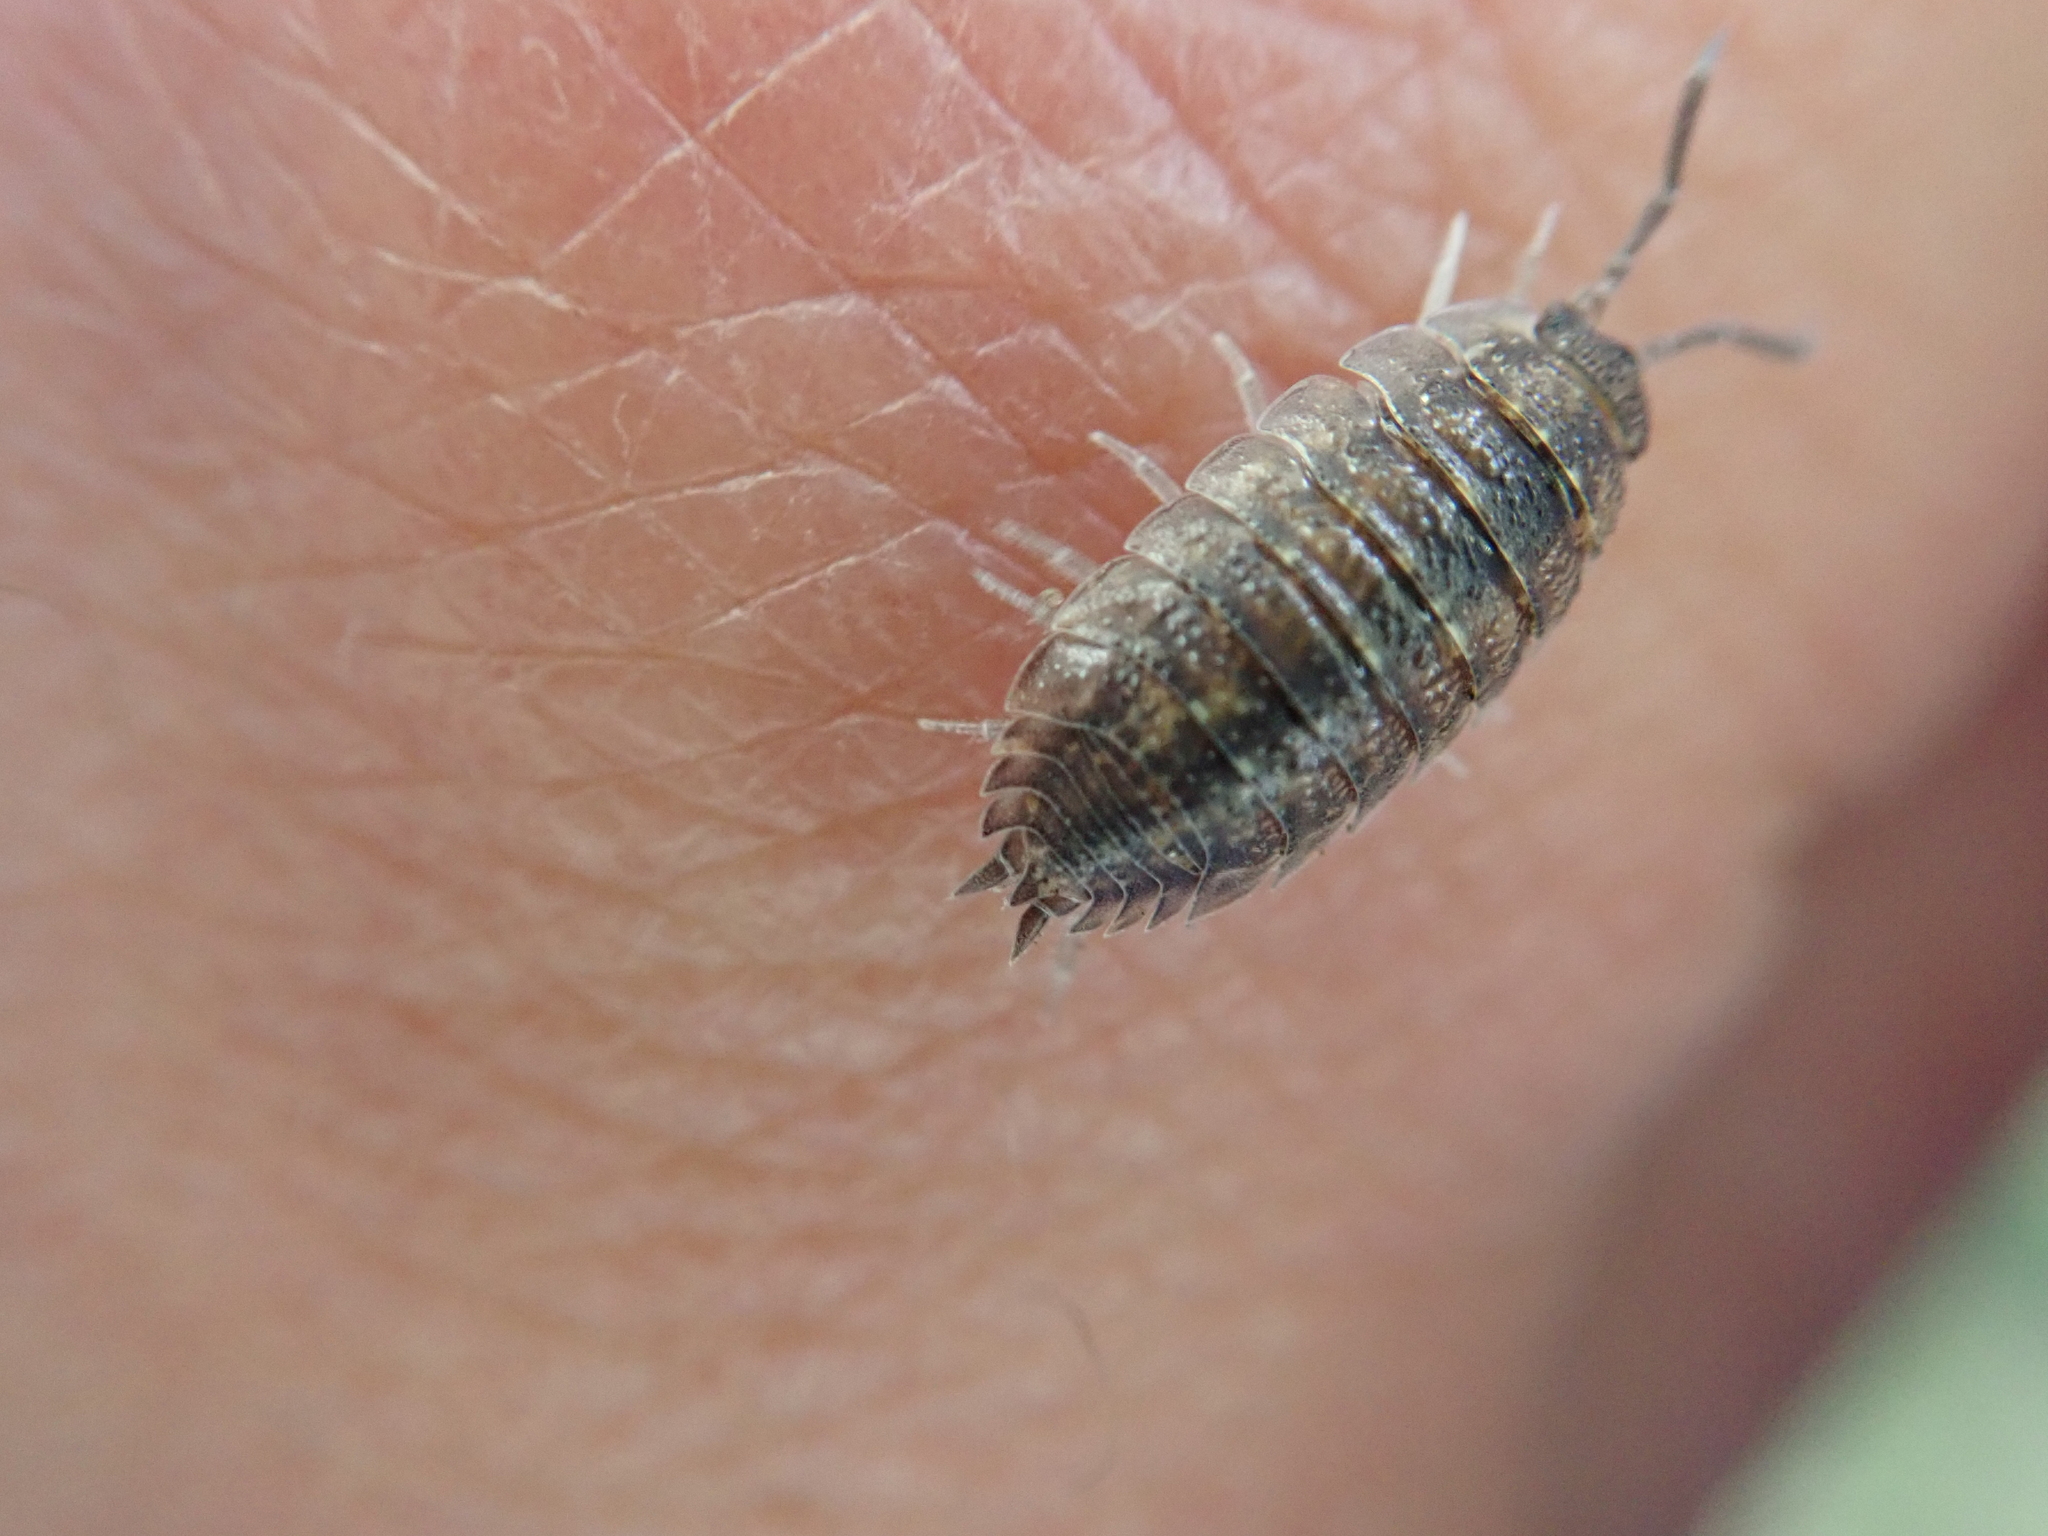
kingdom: Animalia
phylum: Arthropoda
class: Malacostraca
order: Isopoda
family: Porcellionidae
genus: Porcellio
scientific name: Porcellio scaber
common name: Common rough woodlouse
